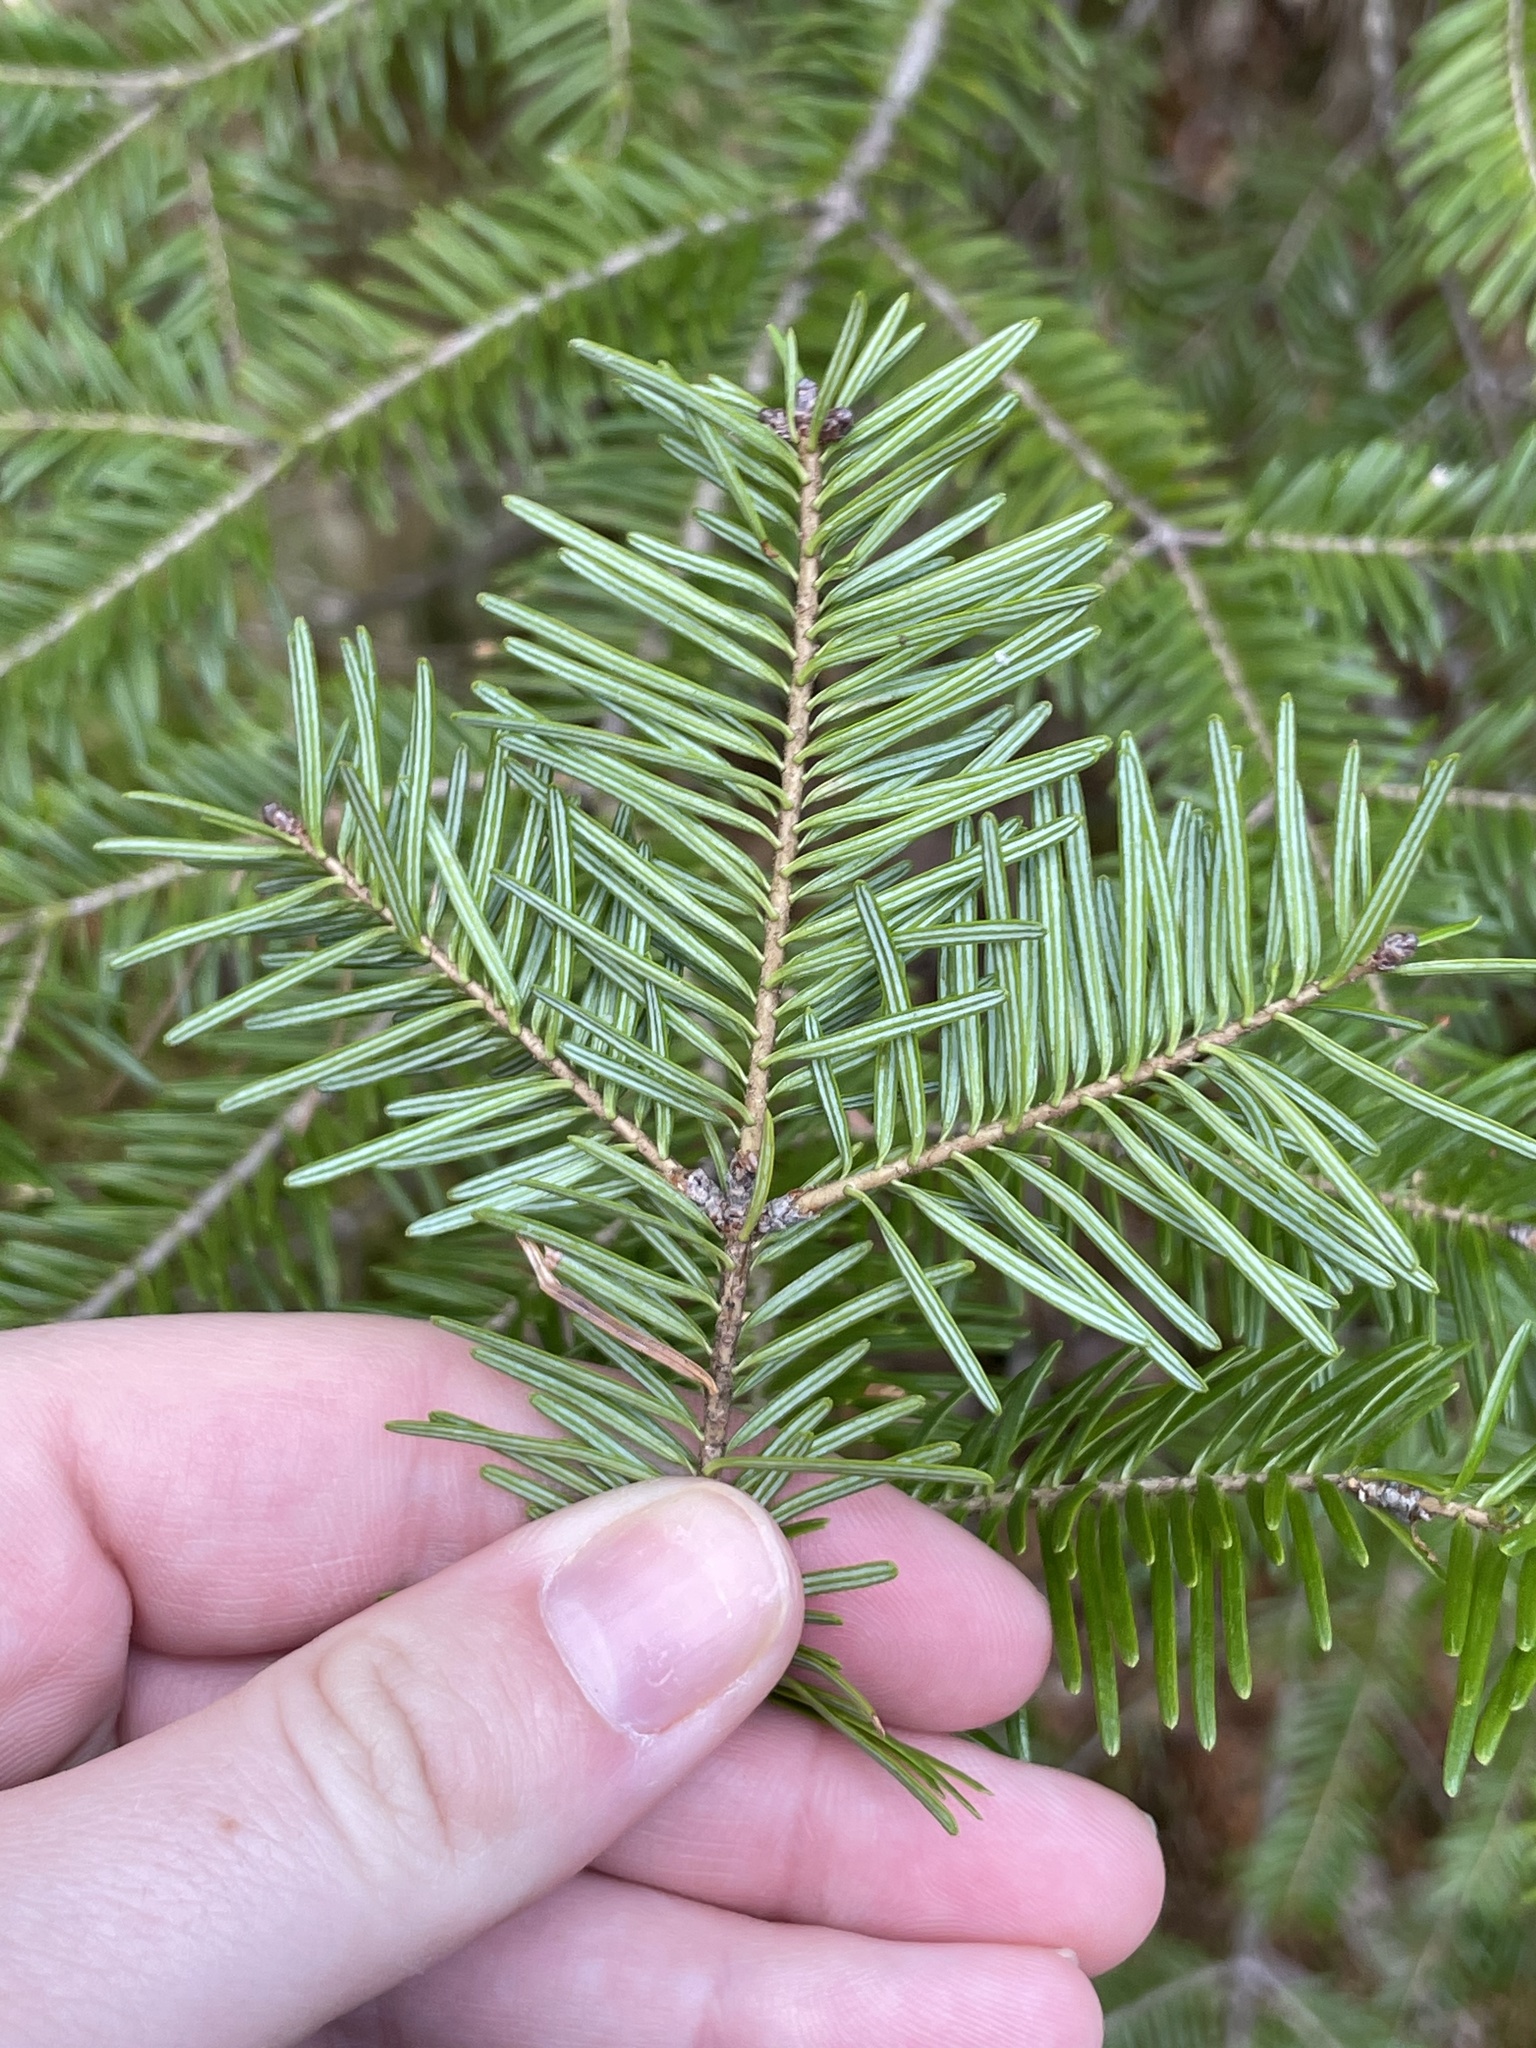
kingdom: Plantae
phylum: Tracheophyta
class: Pinopsida
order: Pinales
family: Pinaceae
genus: Abies
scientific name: Abies balsamea
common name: Balsam fir
